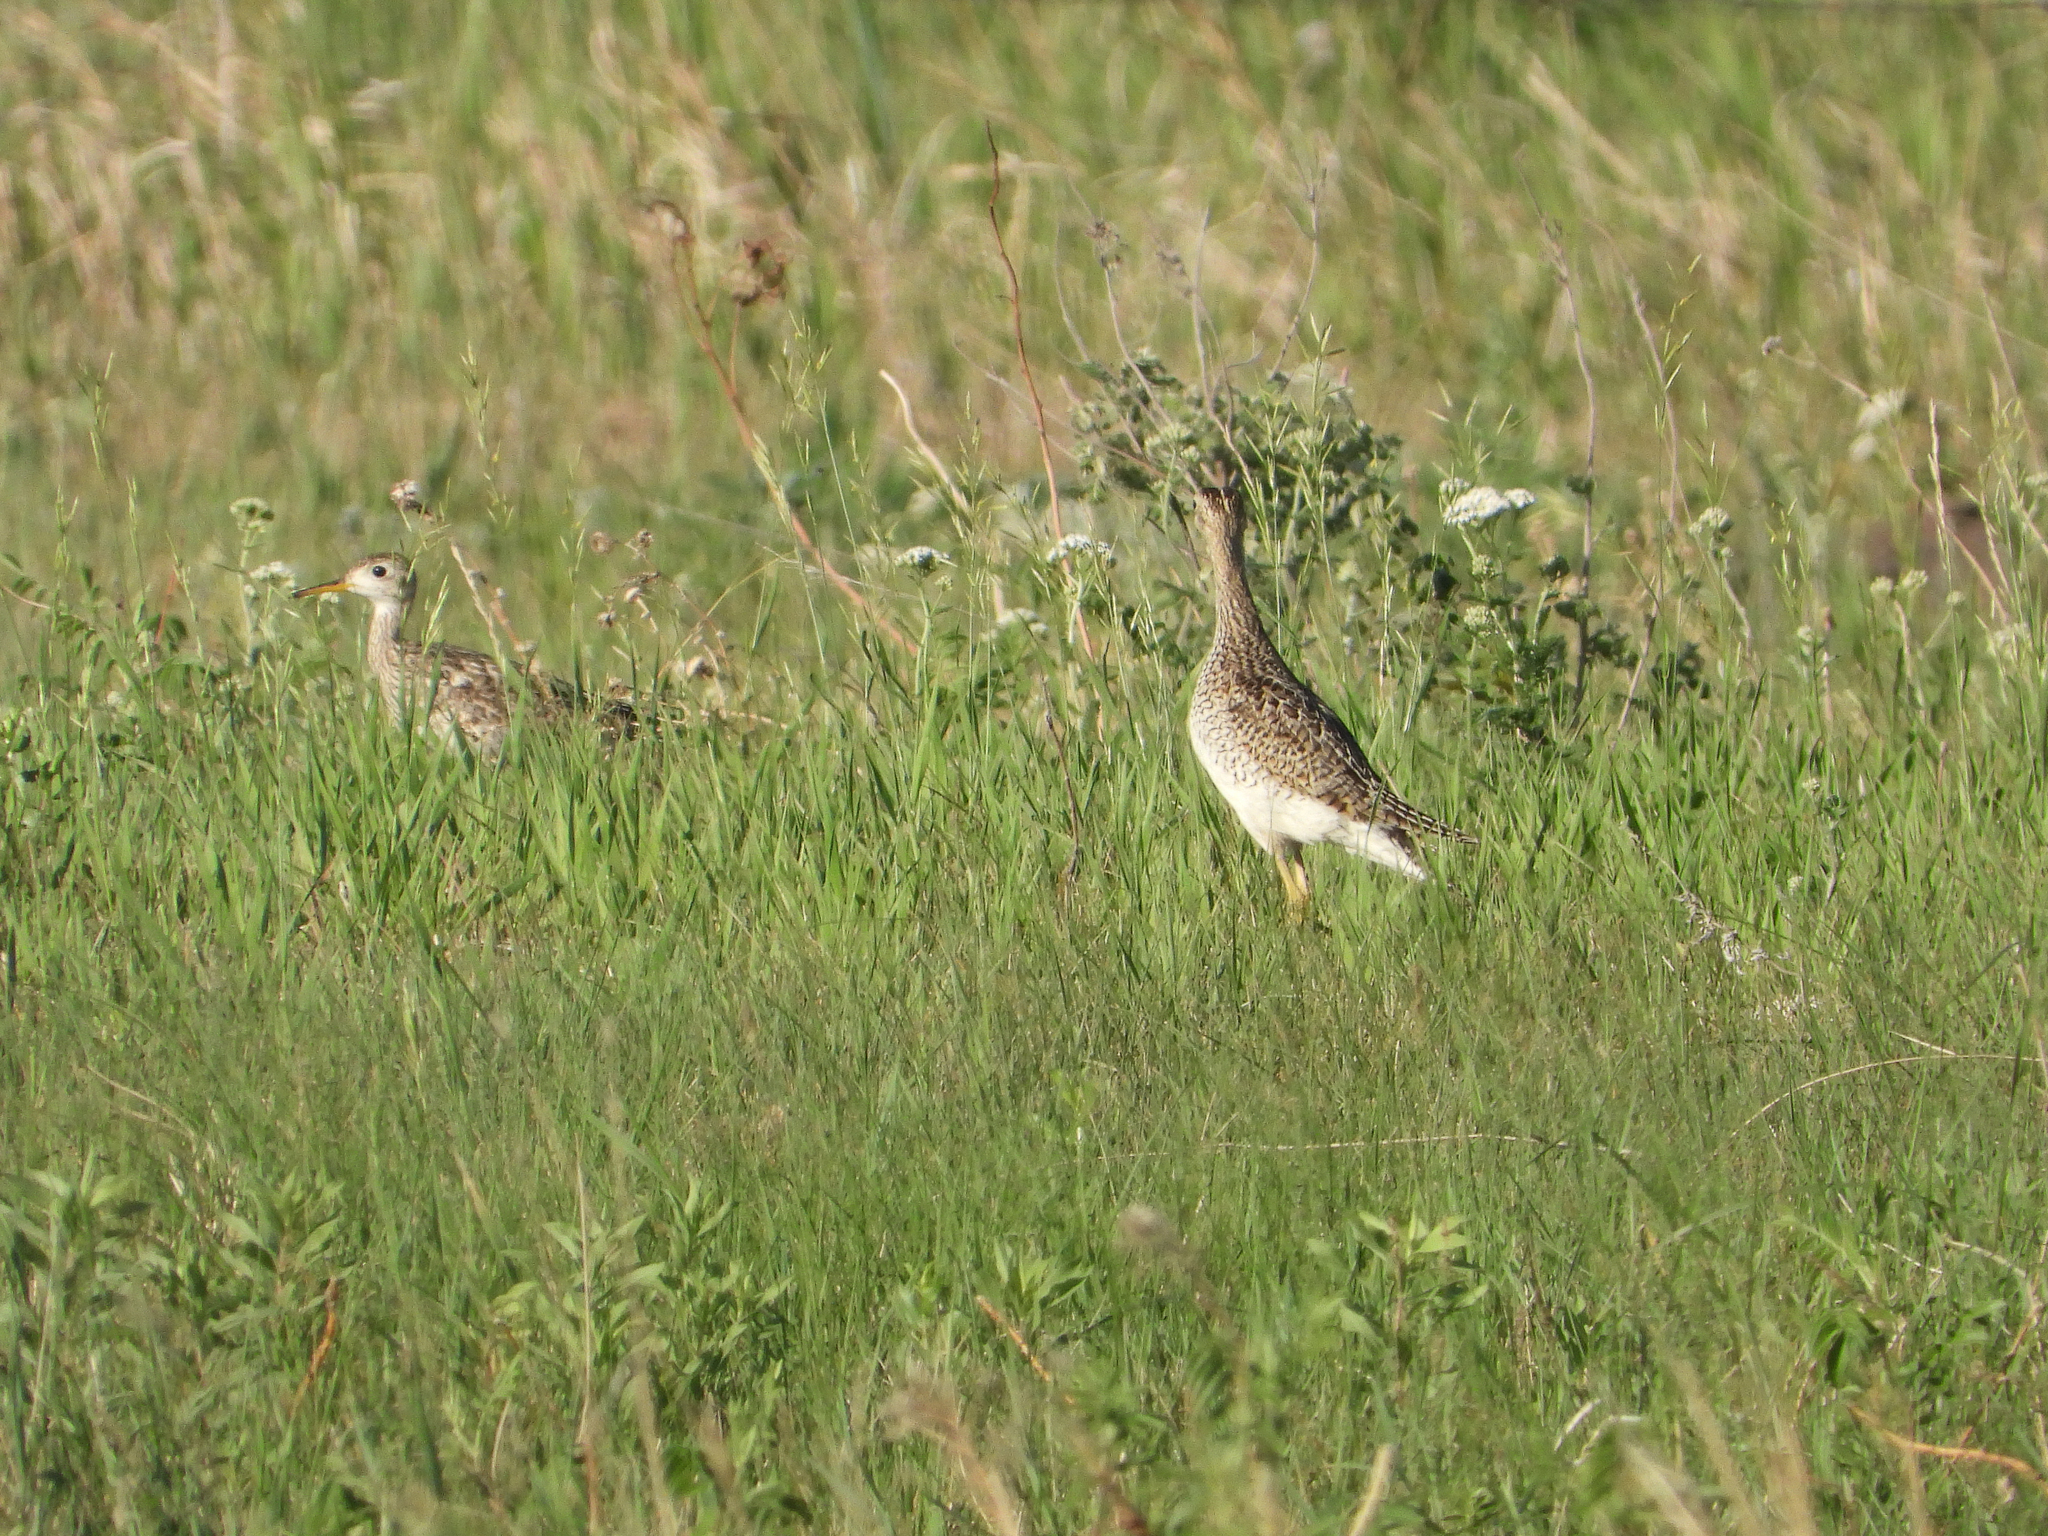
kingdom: Animalia
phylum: Chordata
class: Aves
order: Charadriiformes
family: Scolopacidae
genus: Bartramia
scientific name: Bartramia longicauda
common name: Upland sandpiper
